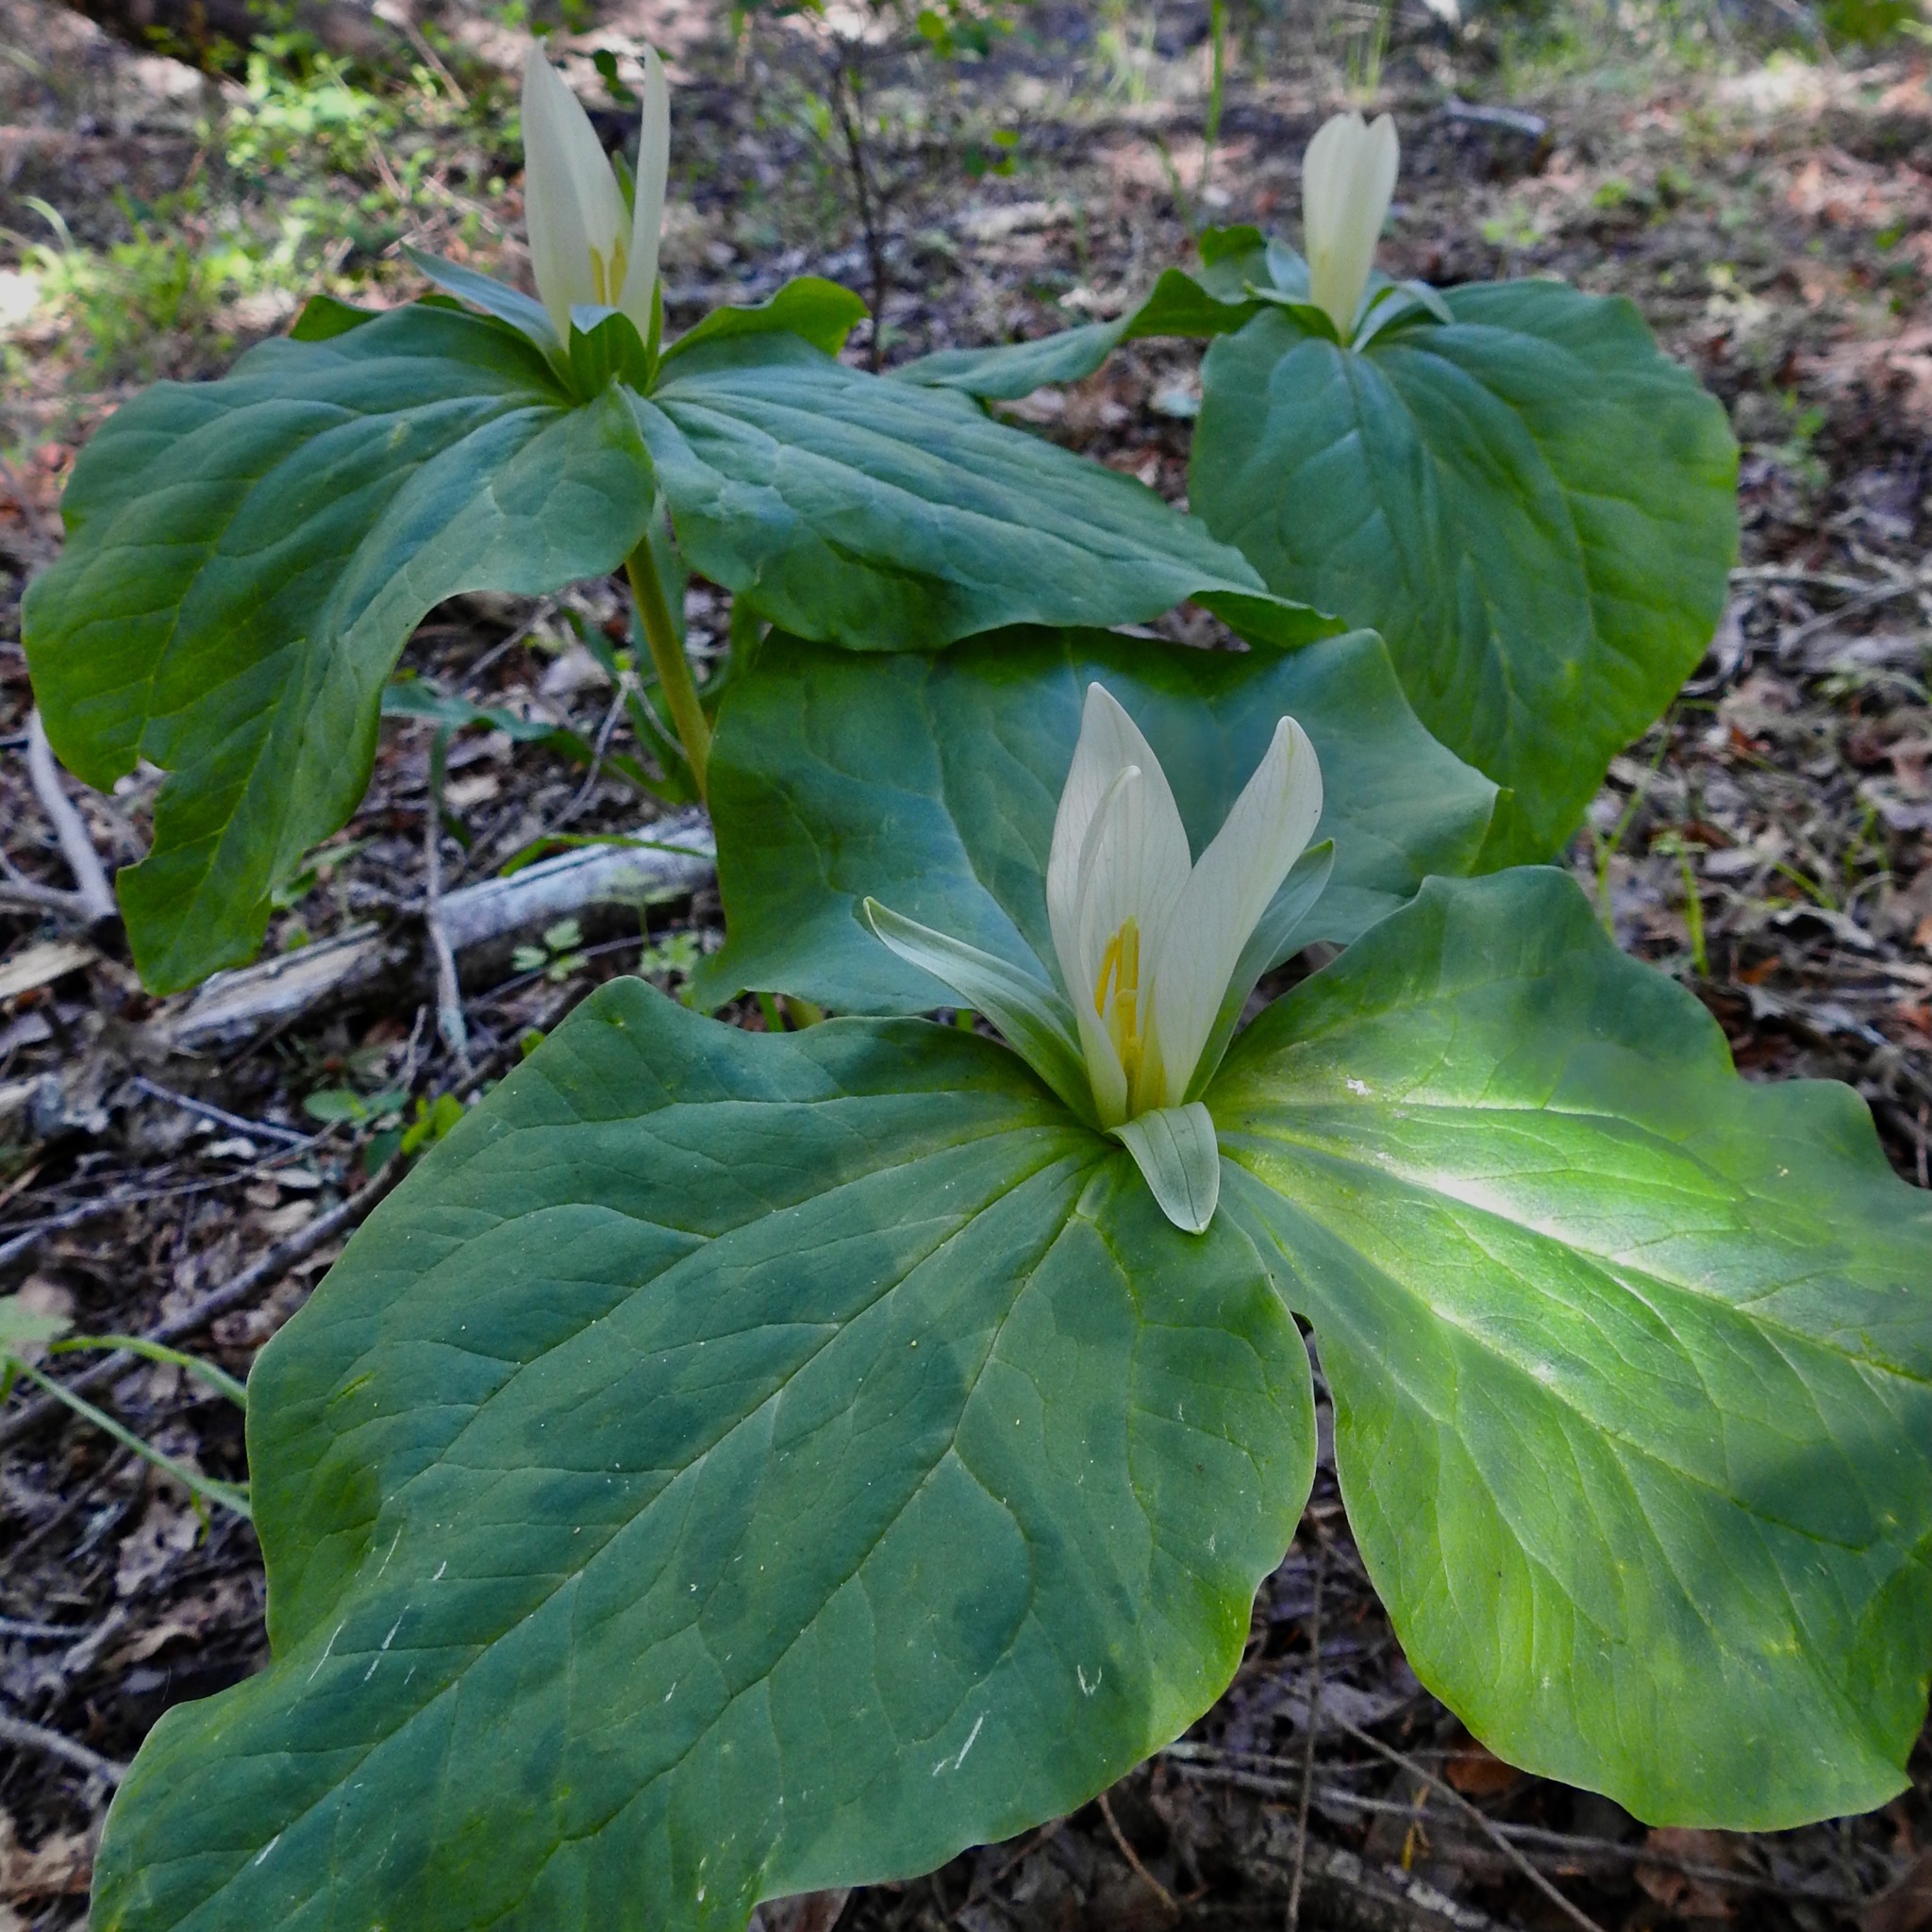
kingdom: Plantae
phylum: Tracheophyta
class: Liliopsida
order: Liliales
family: Melanthiaceae
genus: Trillium
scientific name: Trillium albidum
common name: Freeman's trillium
